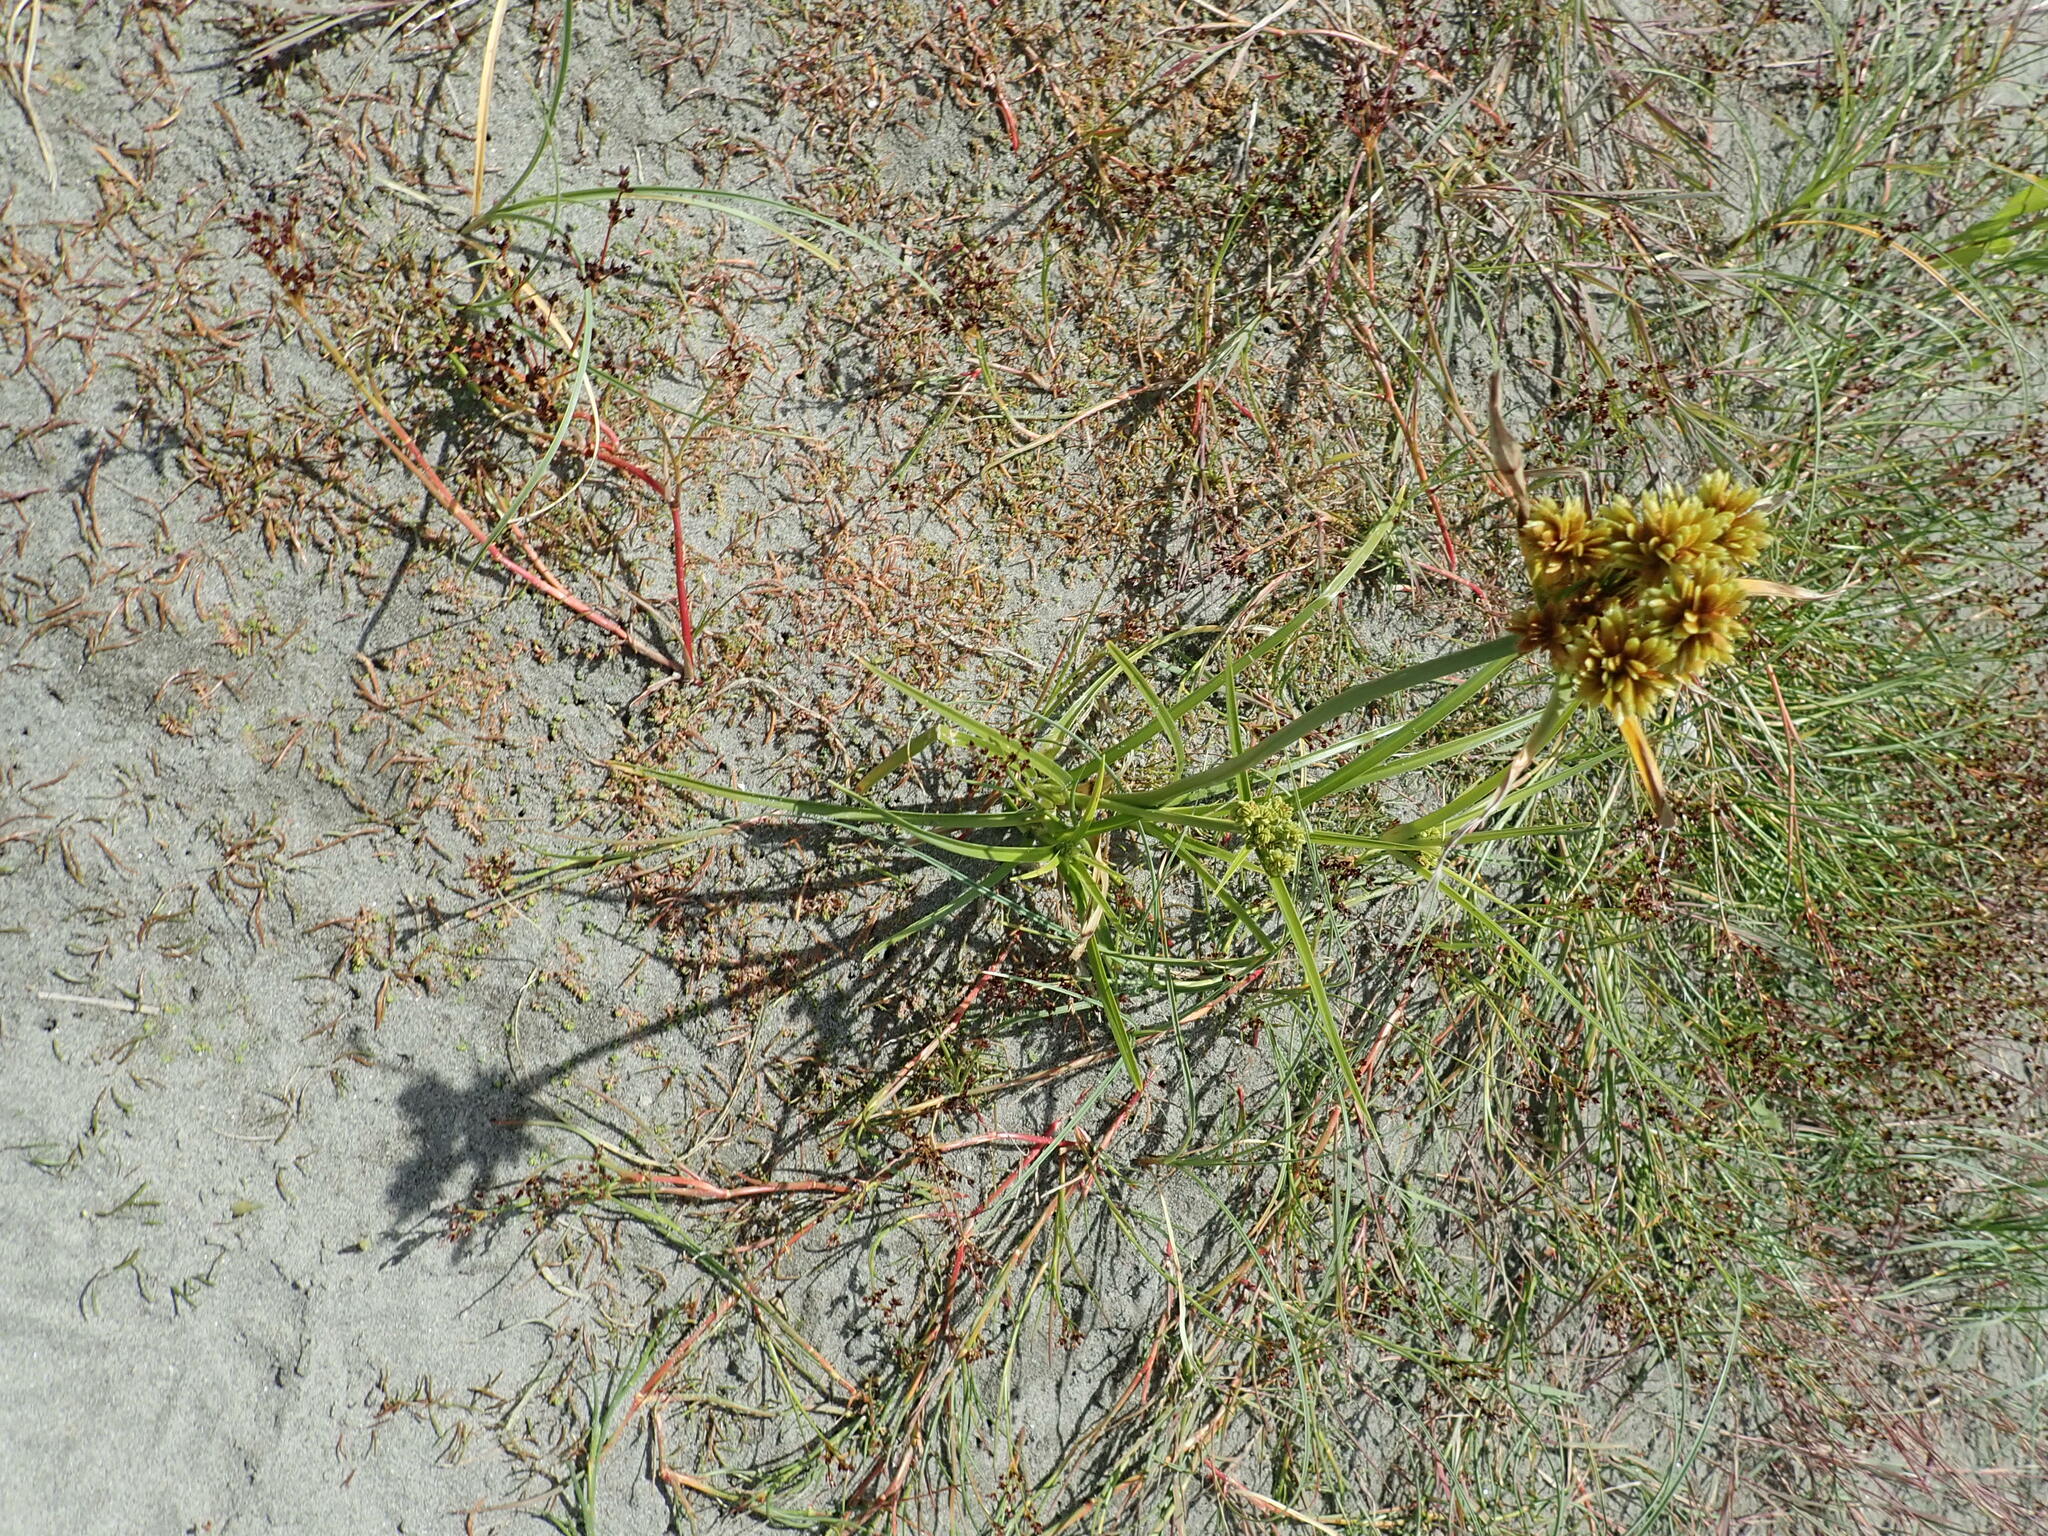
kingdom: Plantae
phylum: Tracheophyta
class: Liliopsida
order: Poales
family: Cyperaceae
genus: Cyperus
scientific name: Cyperus eragrostis
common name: Tall flatsedge
